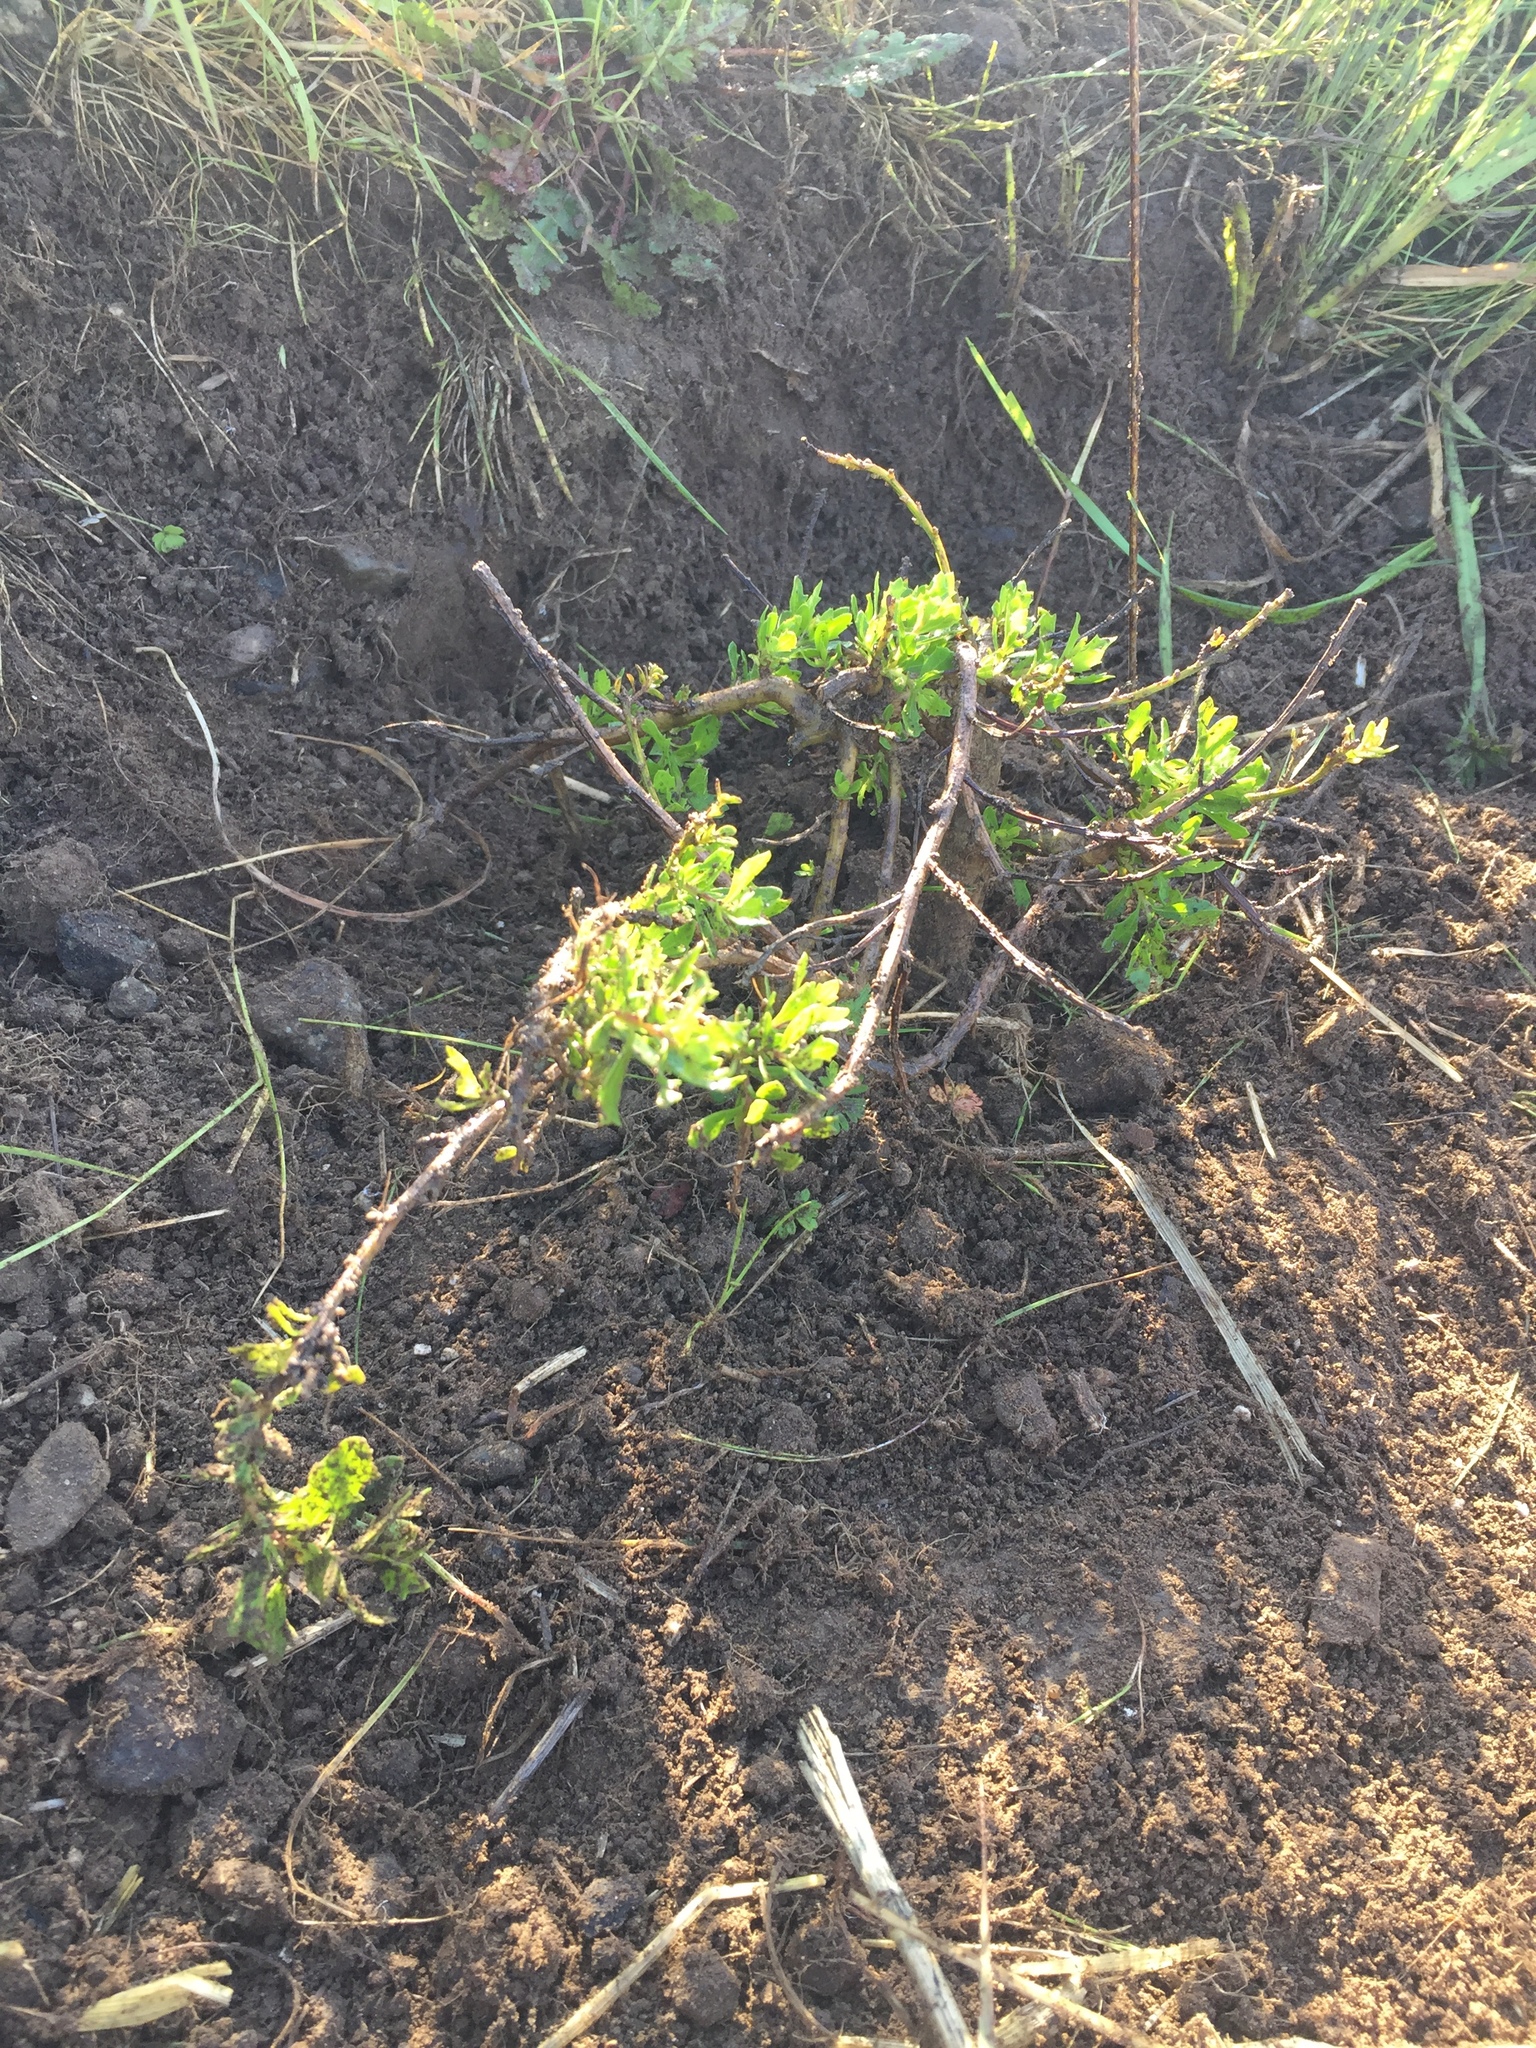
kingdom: Plantae
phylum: Tracheophyta
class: Magnoliopsida
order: Asterales
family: Asteraceae
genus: Baccharis
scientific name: Baccharis pilularis
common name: Coyotebrush
